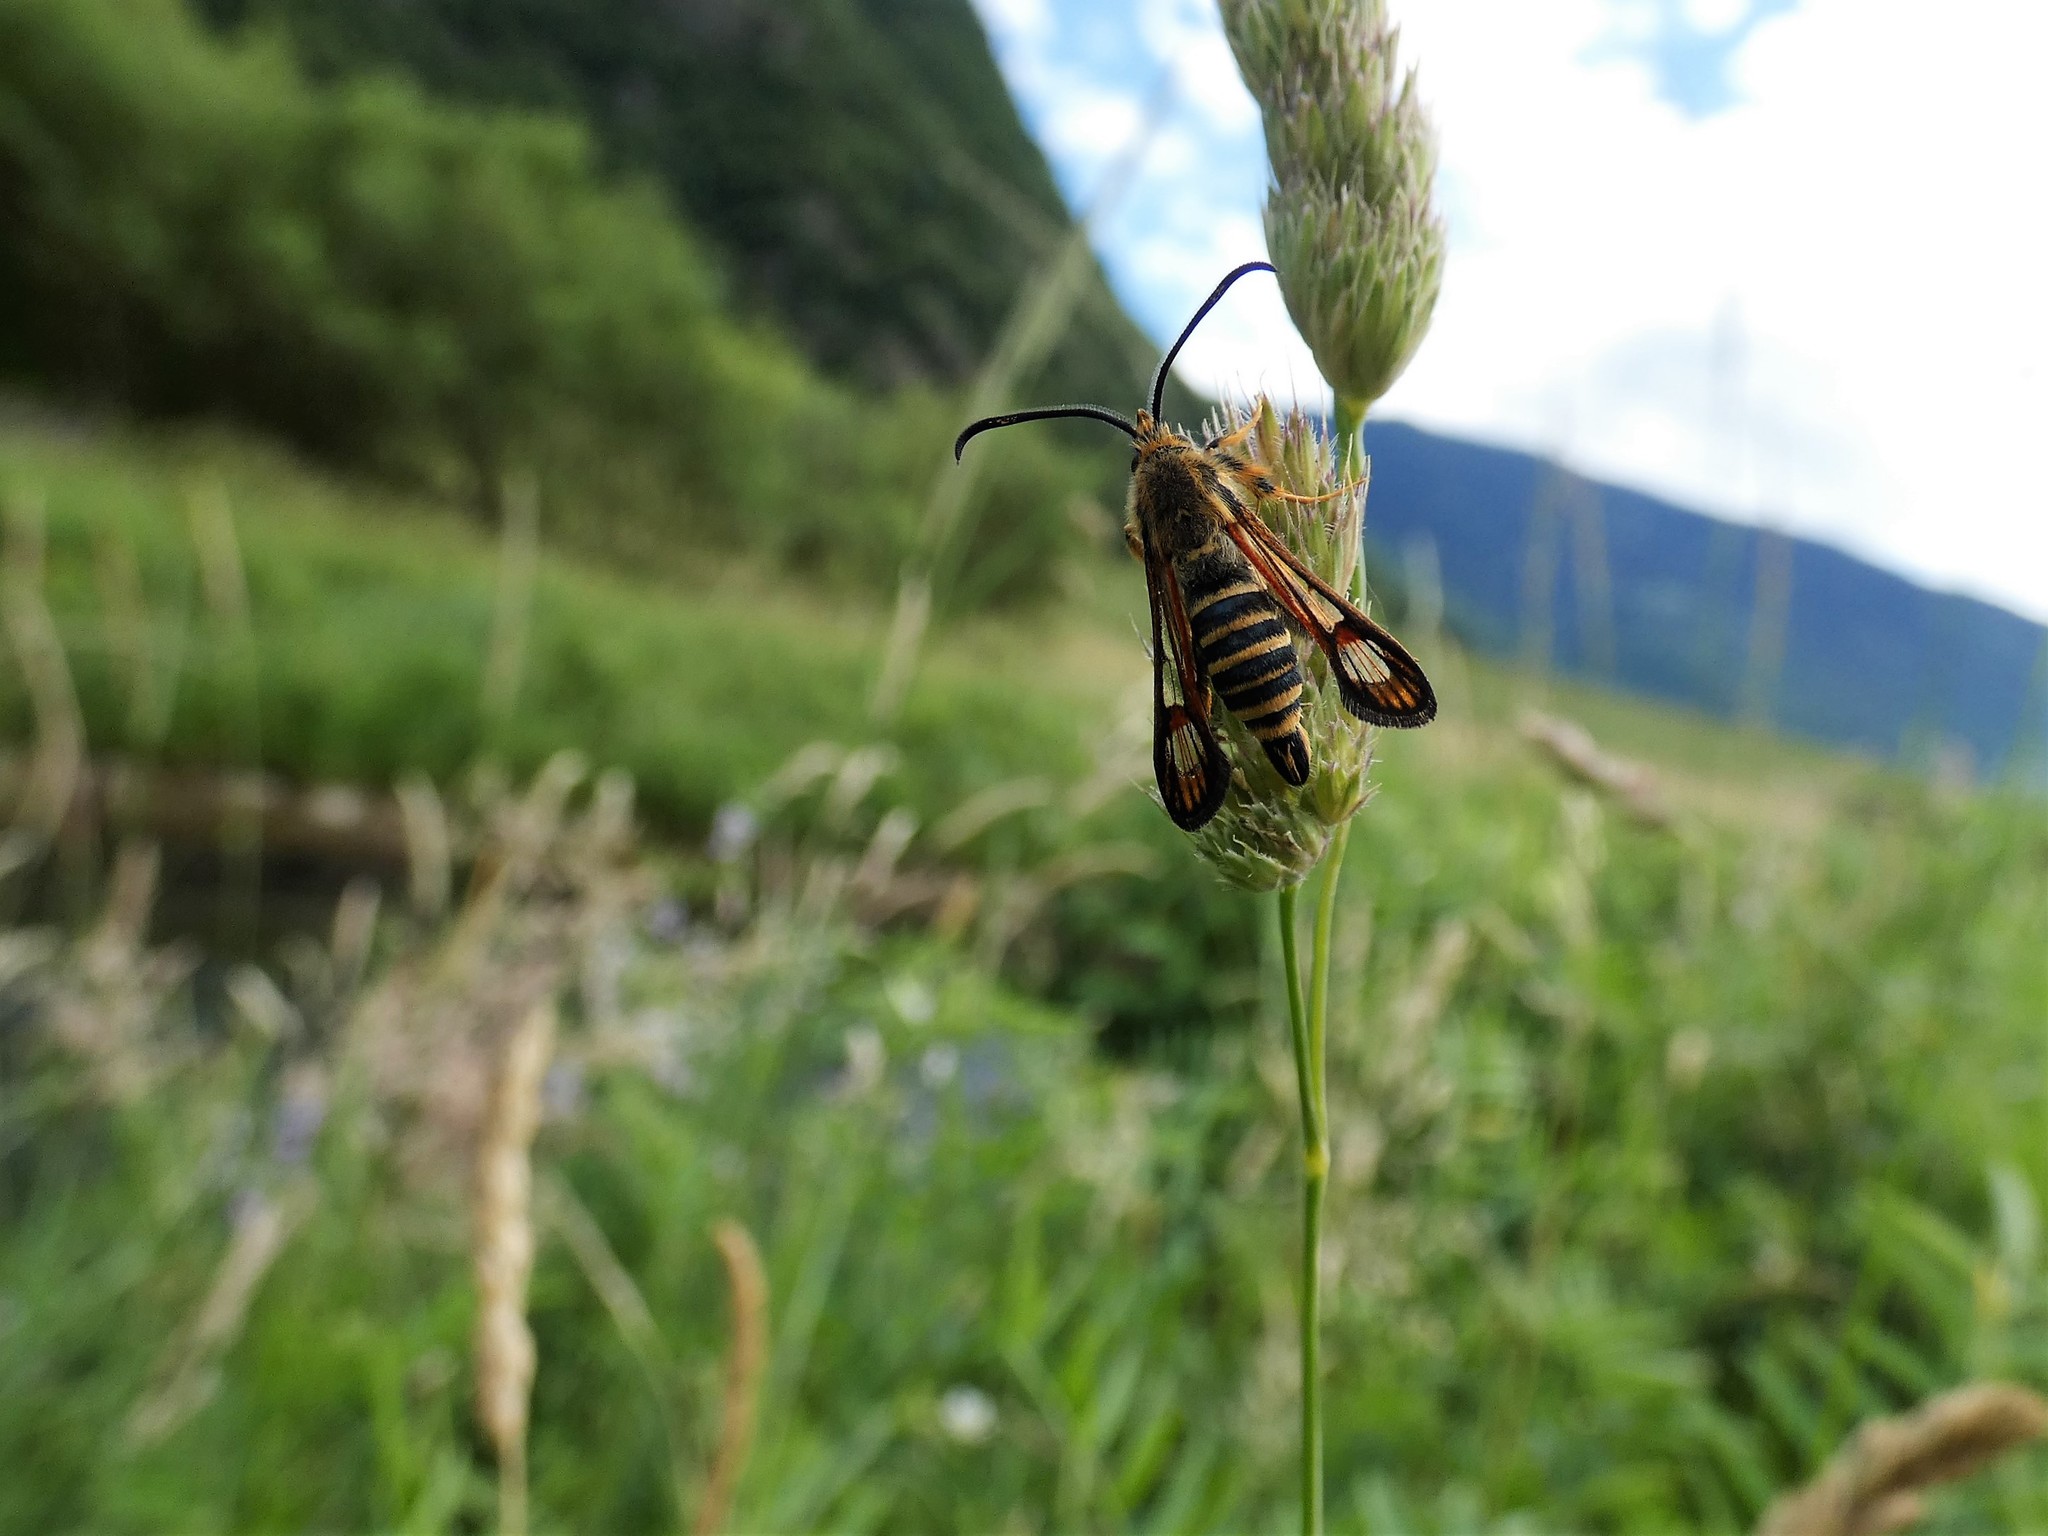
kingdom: Animalia
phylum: Arthropoda
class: Insecta
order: Lepidoptera
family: Sesiidae
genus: Bembecia
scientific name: Bembecia ichneumoniformis
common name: Six-belted clearwing
